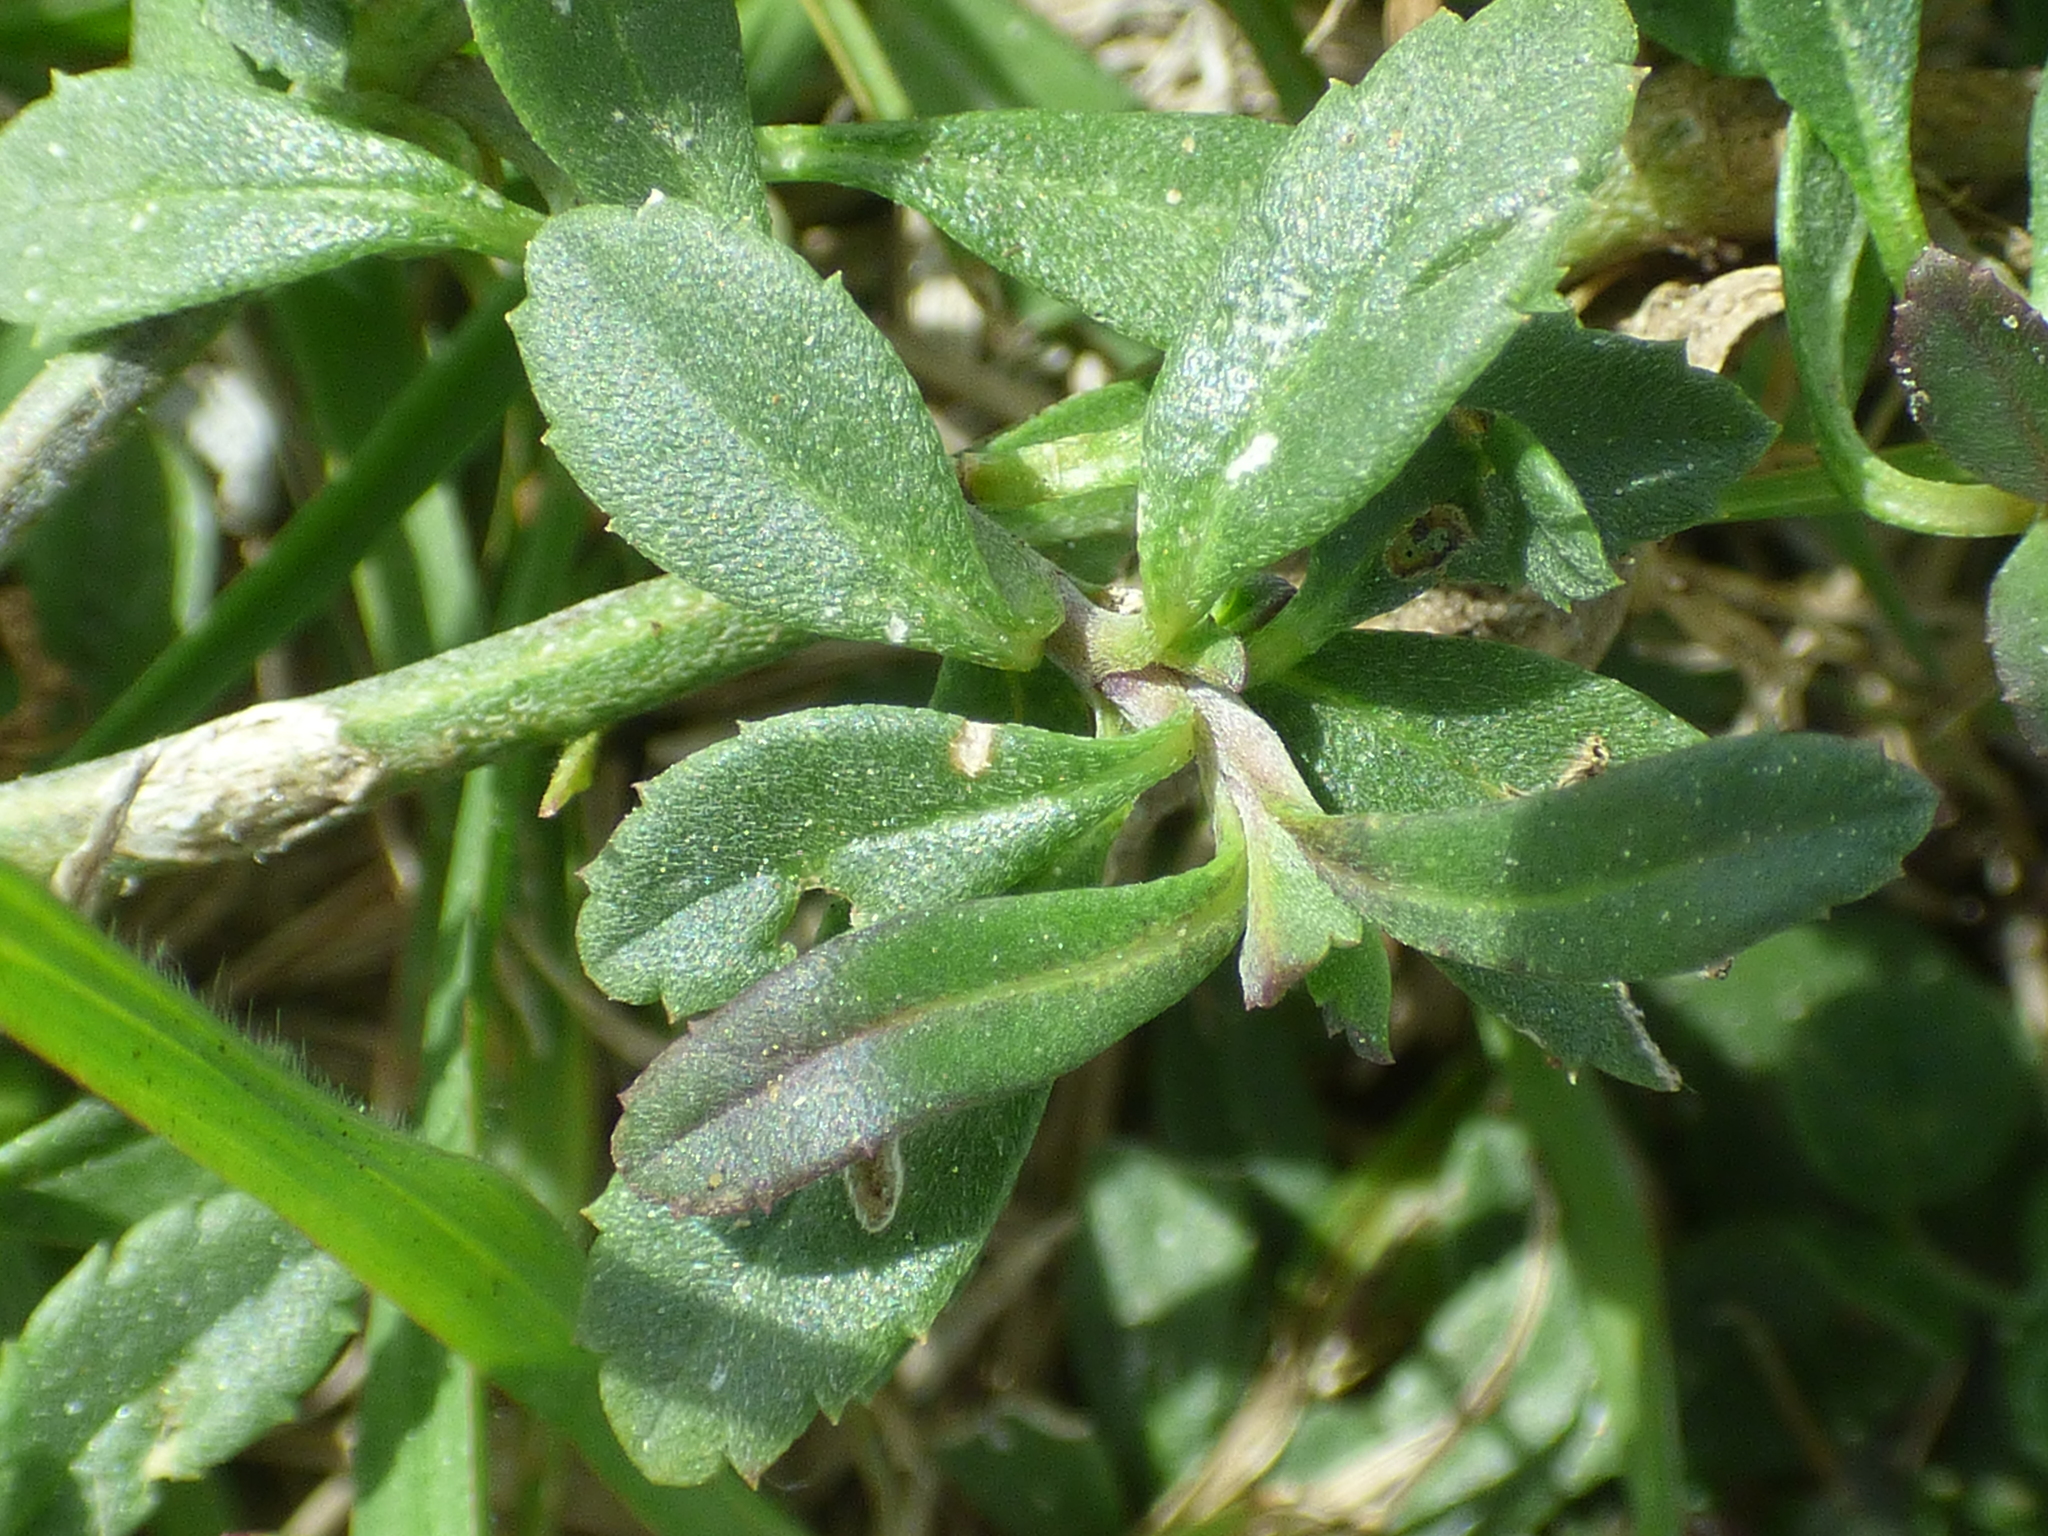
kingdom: Plantae
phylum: Tracheophyta
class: Magnoliopsida
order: Lamiales
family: Verbenaceae
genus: Phyla
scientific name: Phyla nodiflora
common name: Frogfruit
